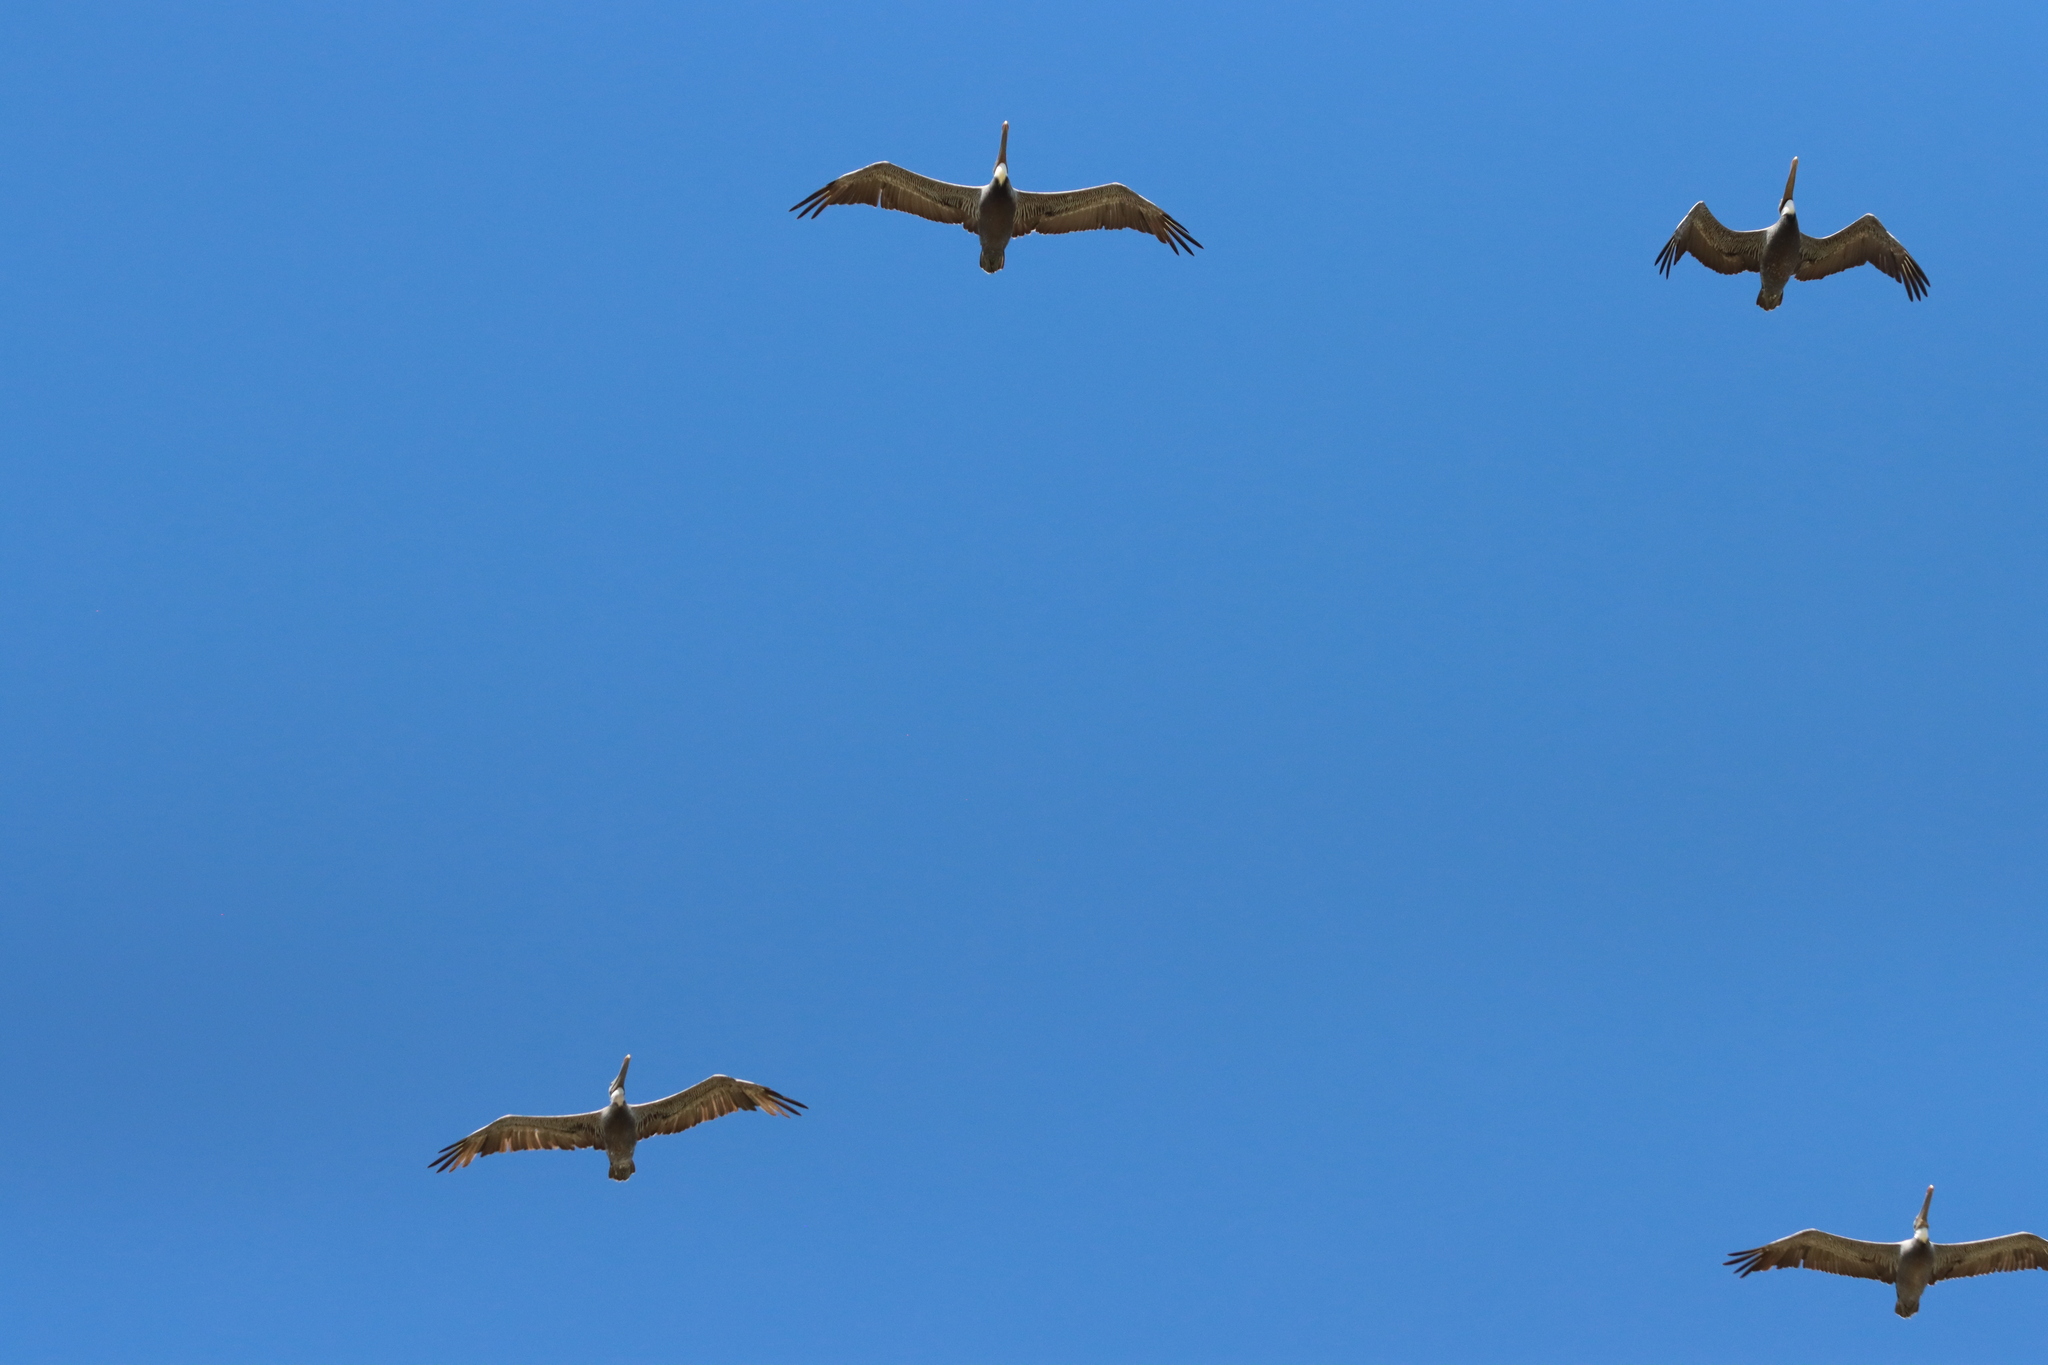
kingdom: Animalia
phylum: Chordata
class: Aves
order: Pelecaniformes
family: Pelecanidae
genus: Pelecanus
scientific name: Pelecanus occidentalis
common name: Brown pelican
